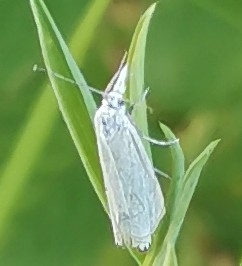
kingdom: Animalia
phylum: Arthropoda
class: Insecta
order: Lepidoptera
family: Crambidae
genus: Crambus
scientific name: Crambus nemorella
